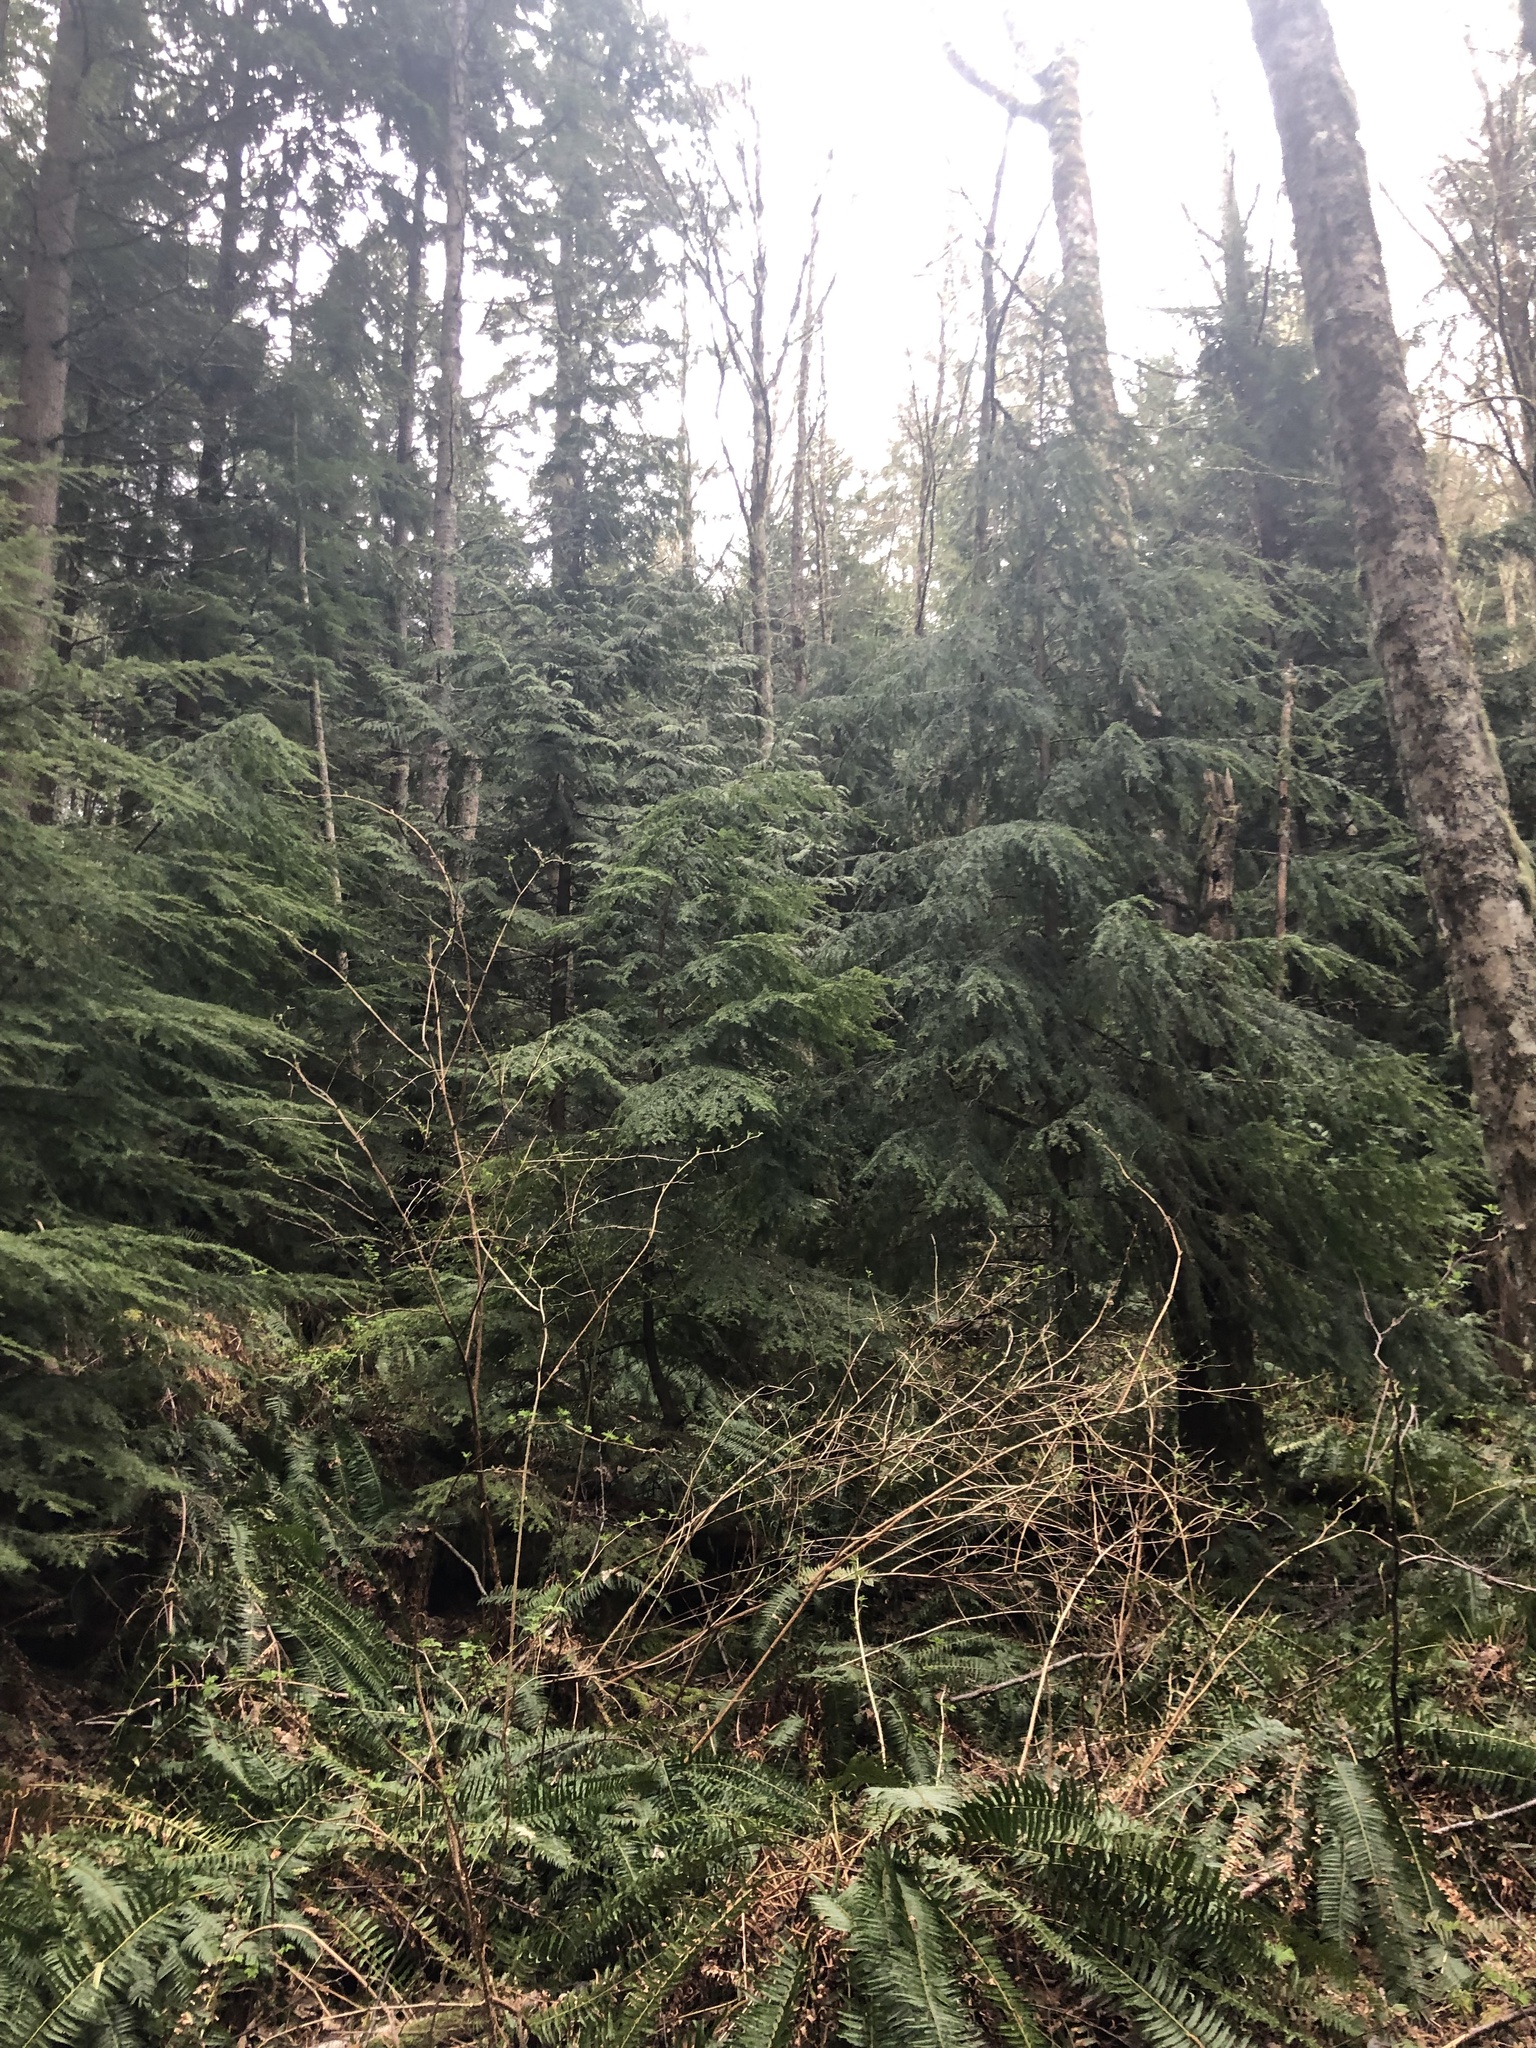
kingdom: Plantae
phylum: Tracheophyta
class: Pinopsida
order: Pinales
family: Pinaceae
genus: Tsuga
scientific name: Tsuga heterophylla
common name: Western hemlock
